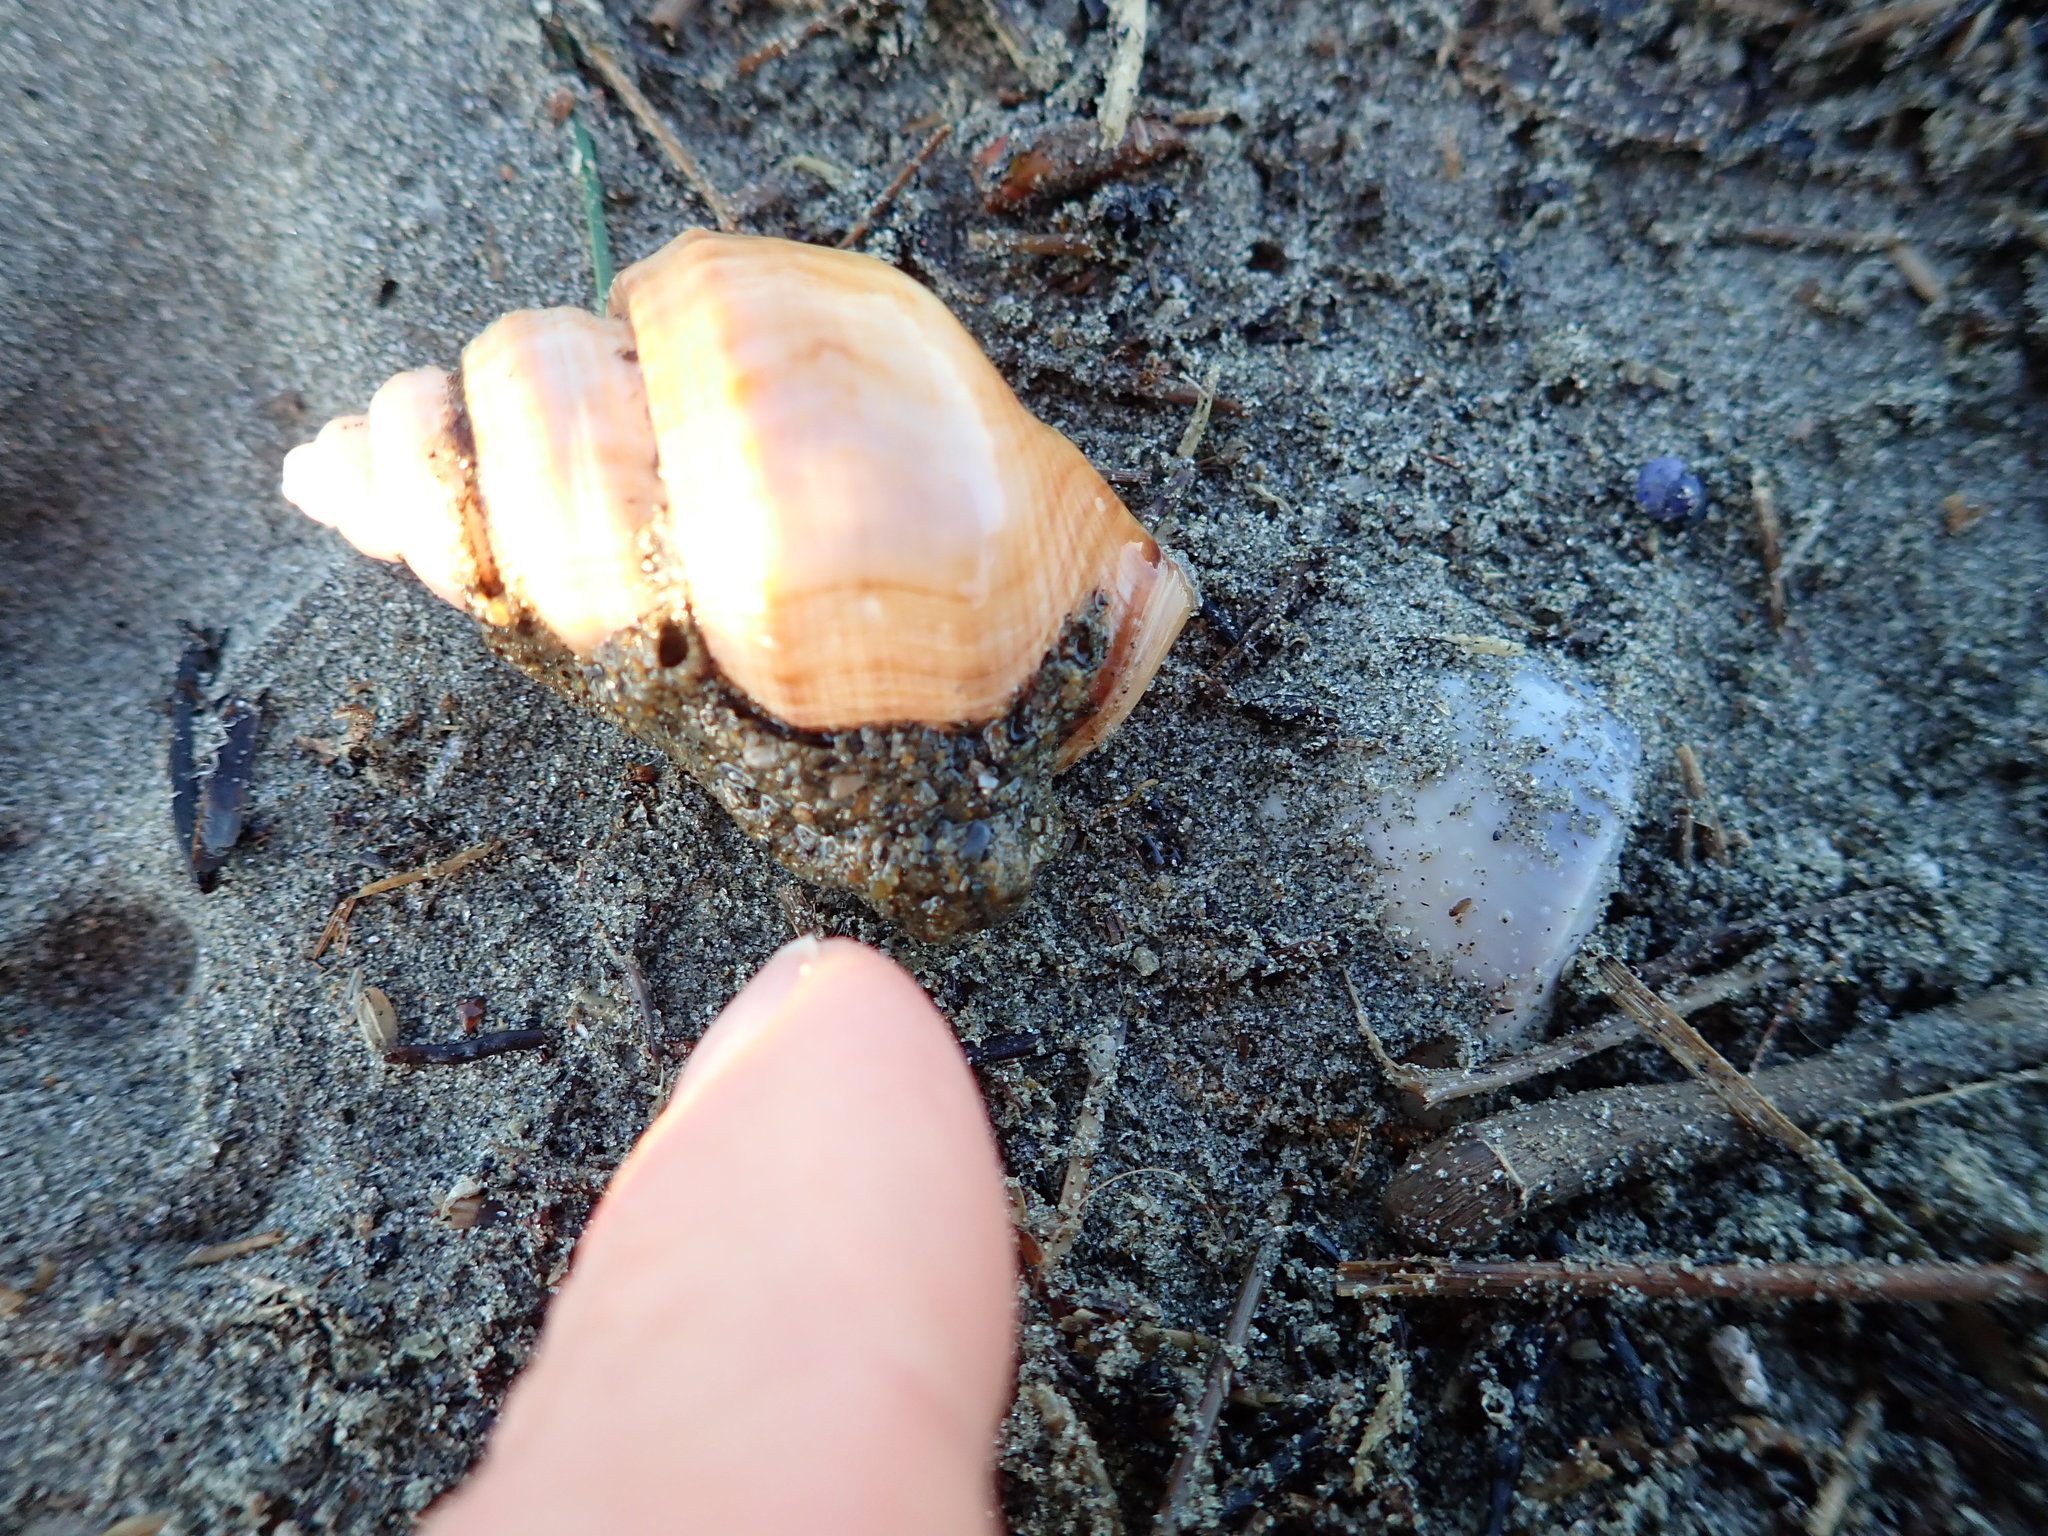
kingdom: Animalia
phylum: Mollusca
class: Gastropoda
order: Littorinimorpha
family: Struthiolariidae
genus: Pelicaria
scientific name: Pelicaria vermis
